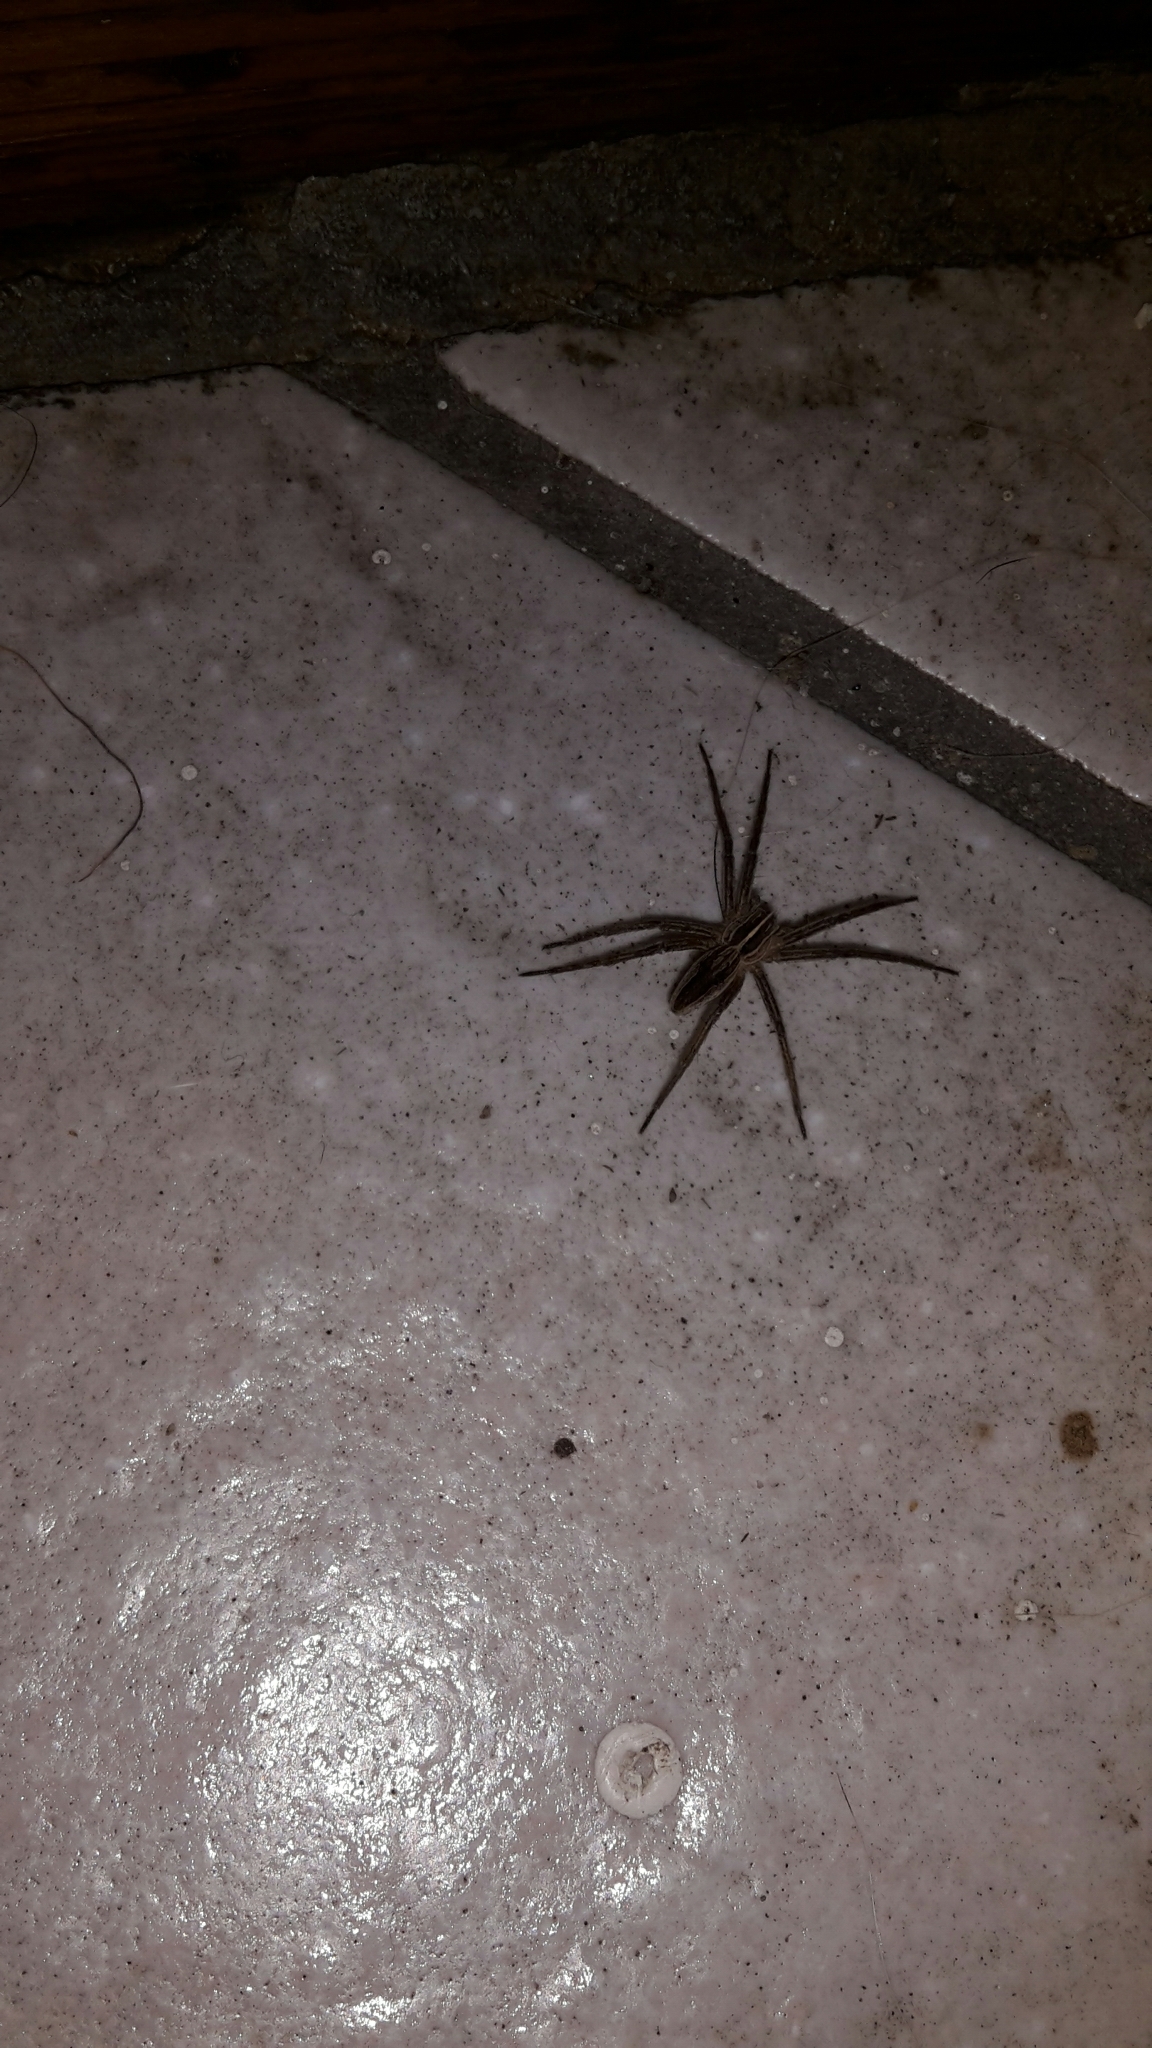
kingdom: Animalia
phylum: Arthropoda
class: Arachnida
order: Araneae
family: Pisauridae
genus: Pisaura
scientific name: Pisaura mirabilis
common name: Tent spider
